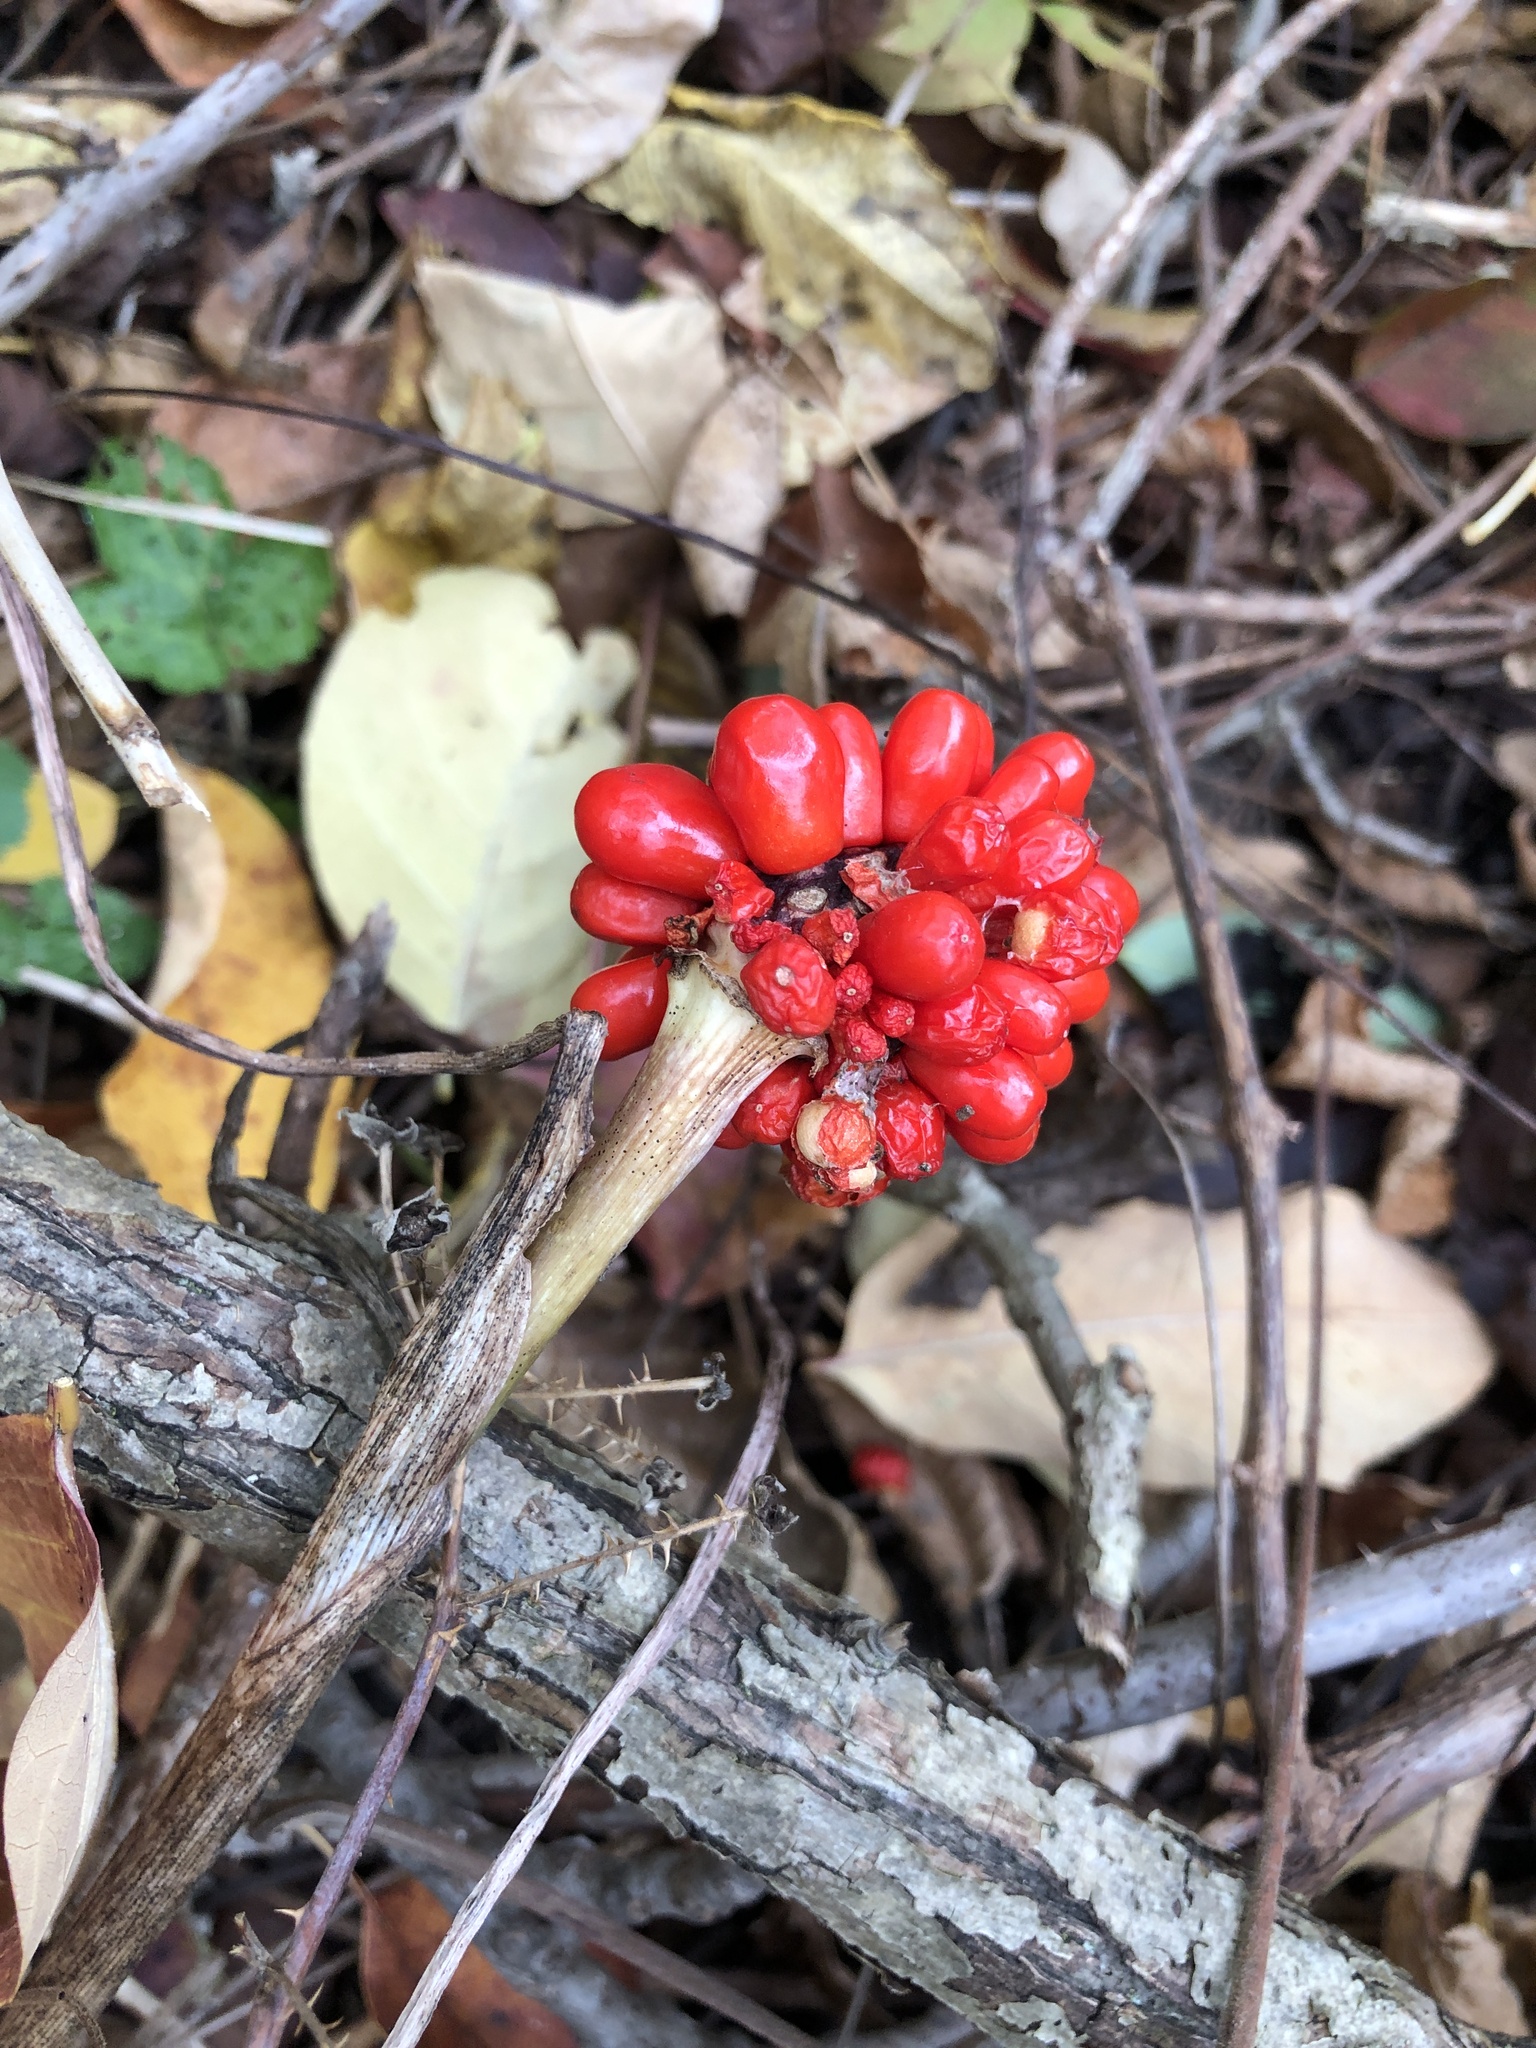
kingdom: Plantae
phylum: Tracheophyta
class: Liliopsida
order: Alismatales
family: Araceae
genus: Arisaema
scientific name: Arisaema triphyllum
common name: Jack-in-the-pulpit
